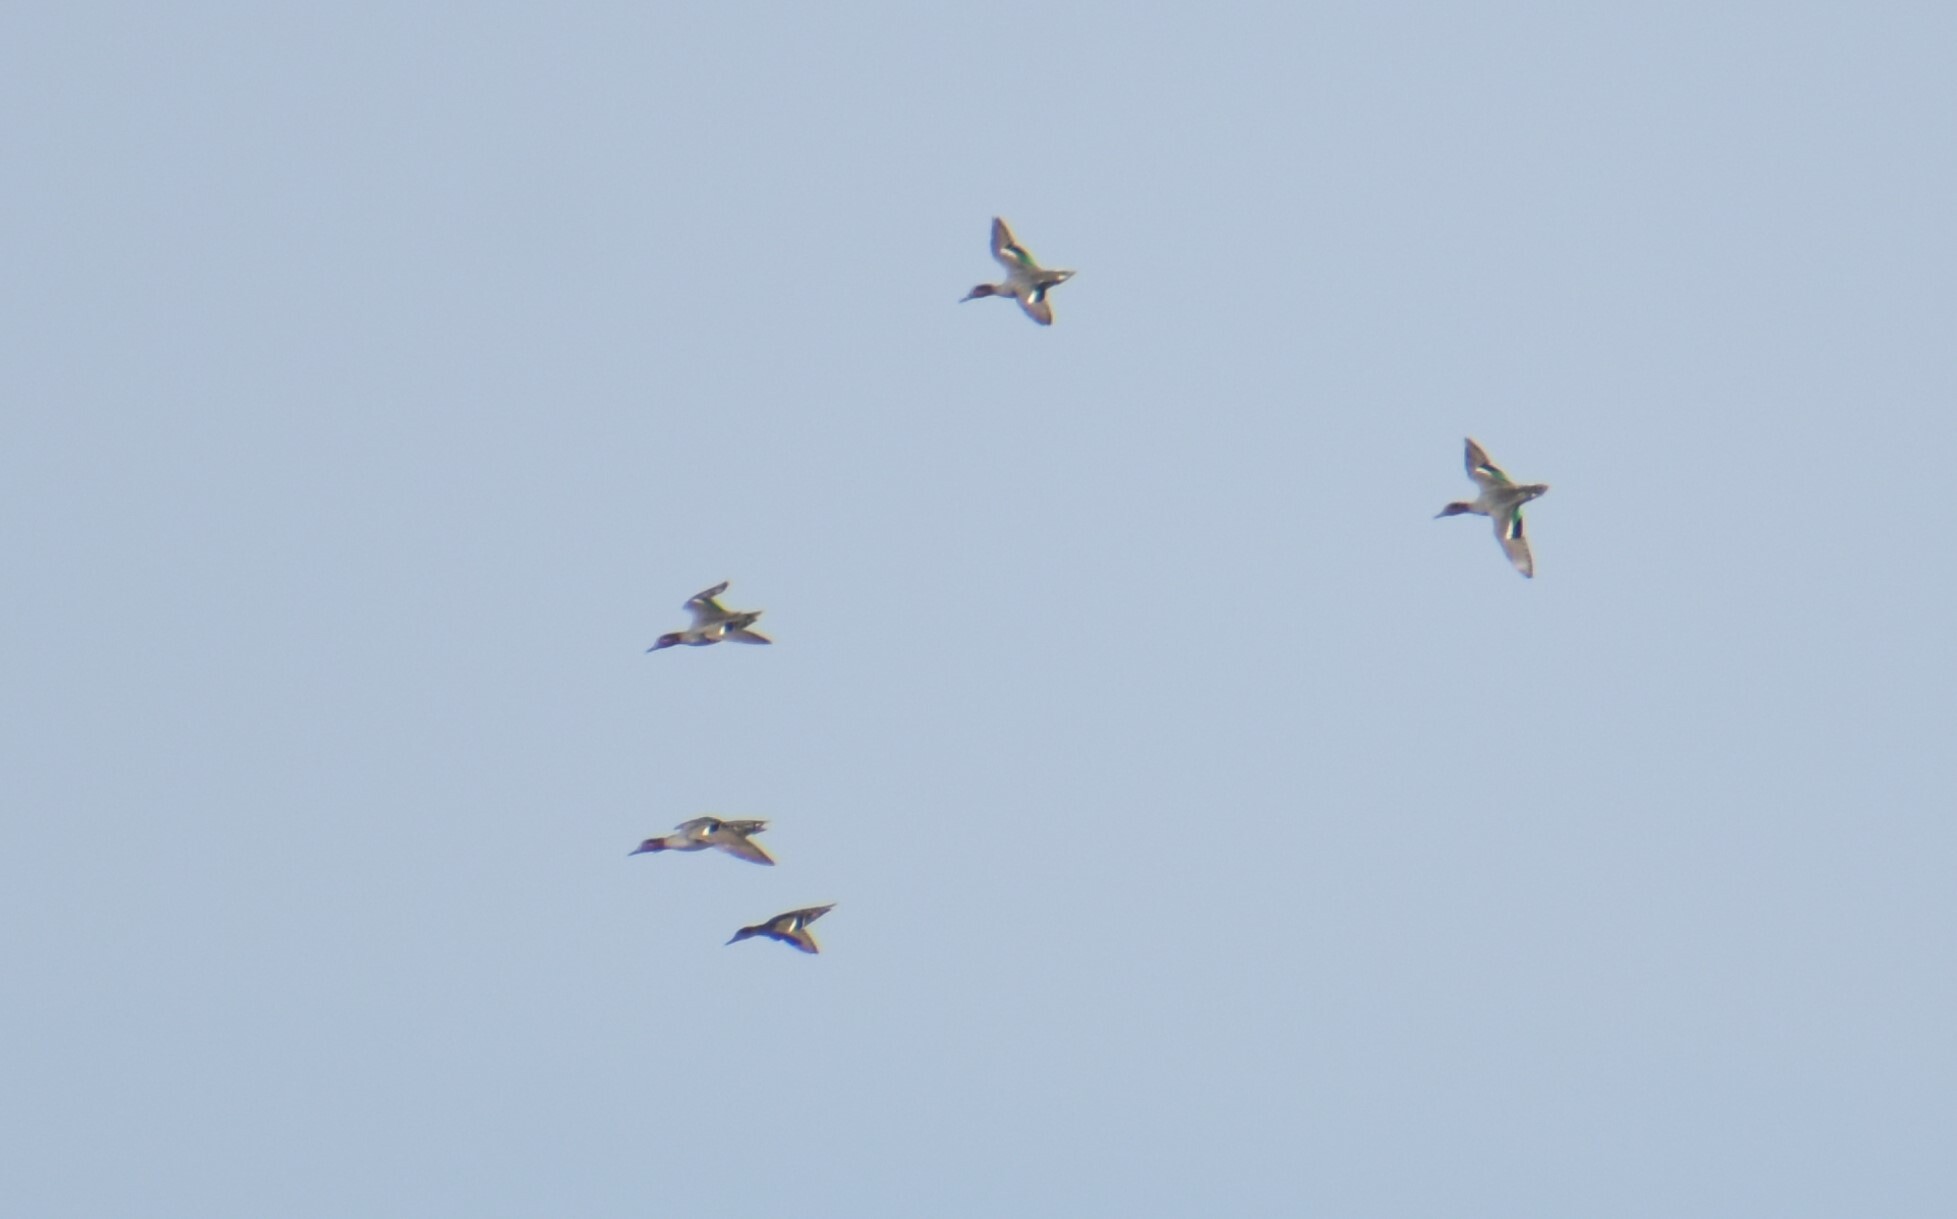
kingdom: Animalia
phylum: Chordata
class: Aves
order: Anseriformes
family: Anatidae
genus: Anas
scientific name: Anas crecca
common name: Eurasian teal
